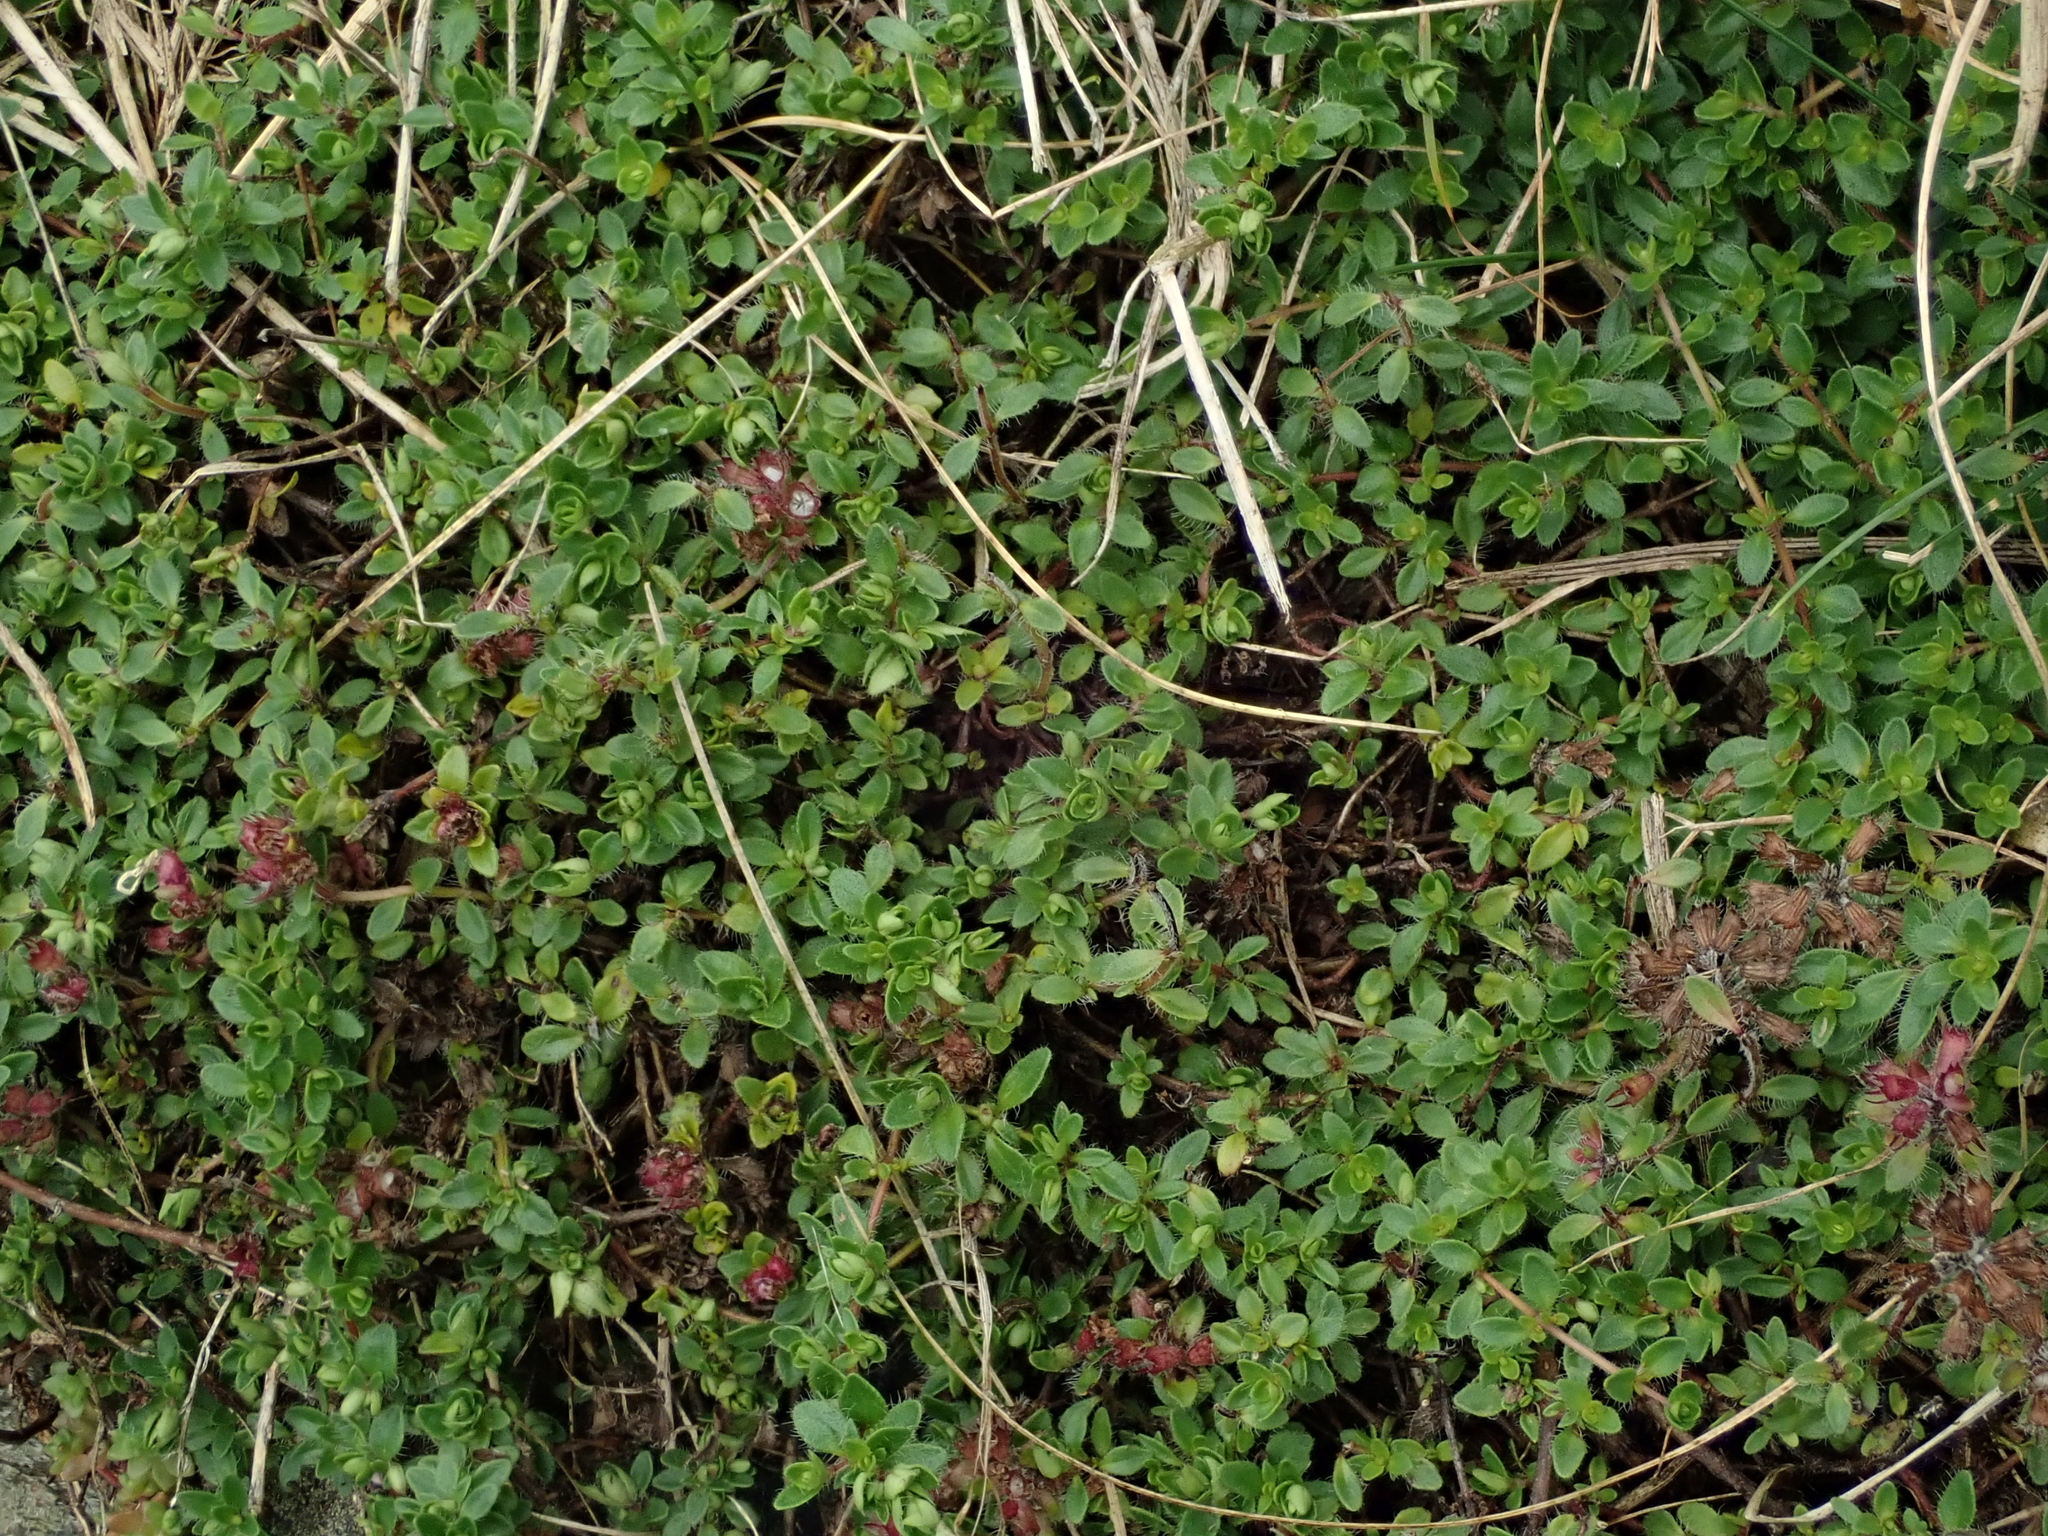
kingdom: Plantae
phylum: Tracheophyta
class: Magnoliopsida
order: Lamiales
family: Lamiaceae
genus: Thymus
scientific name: Thymus praecox
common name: Wild thyme
